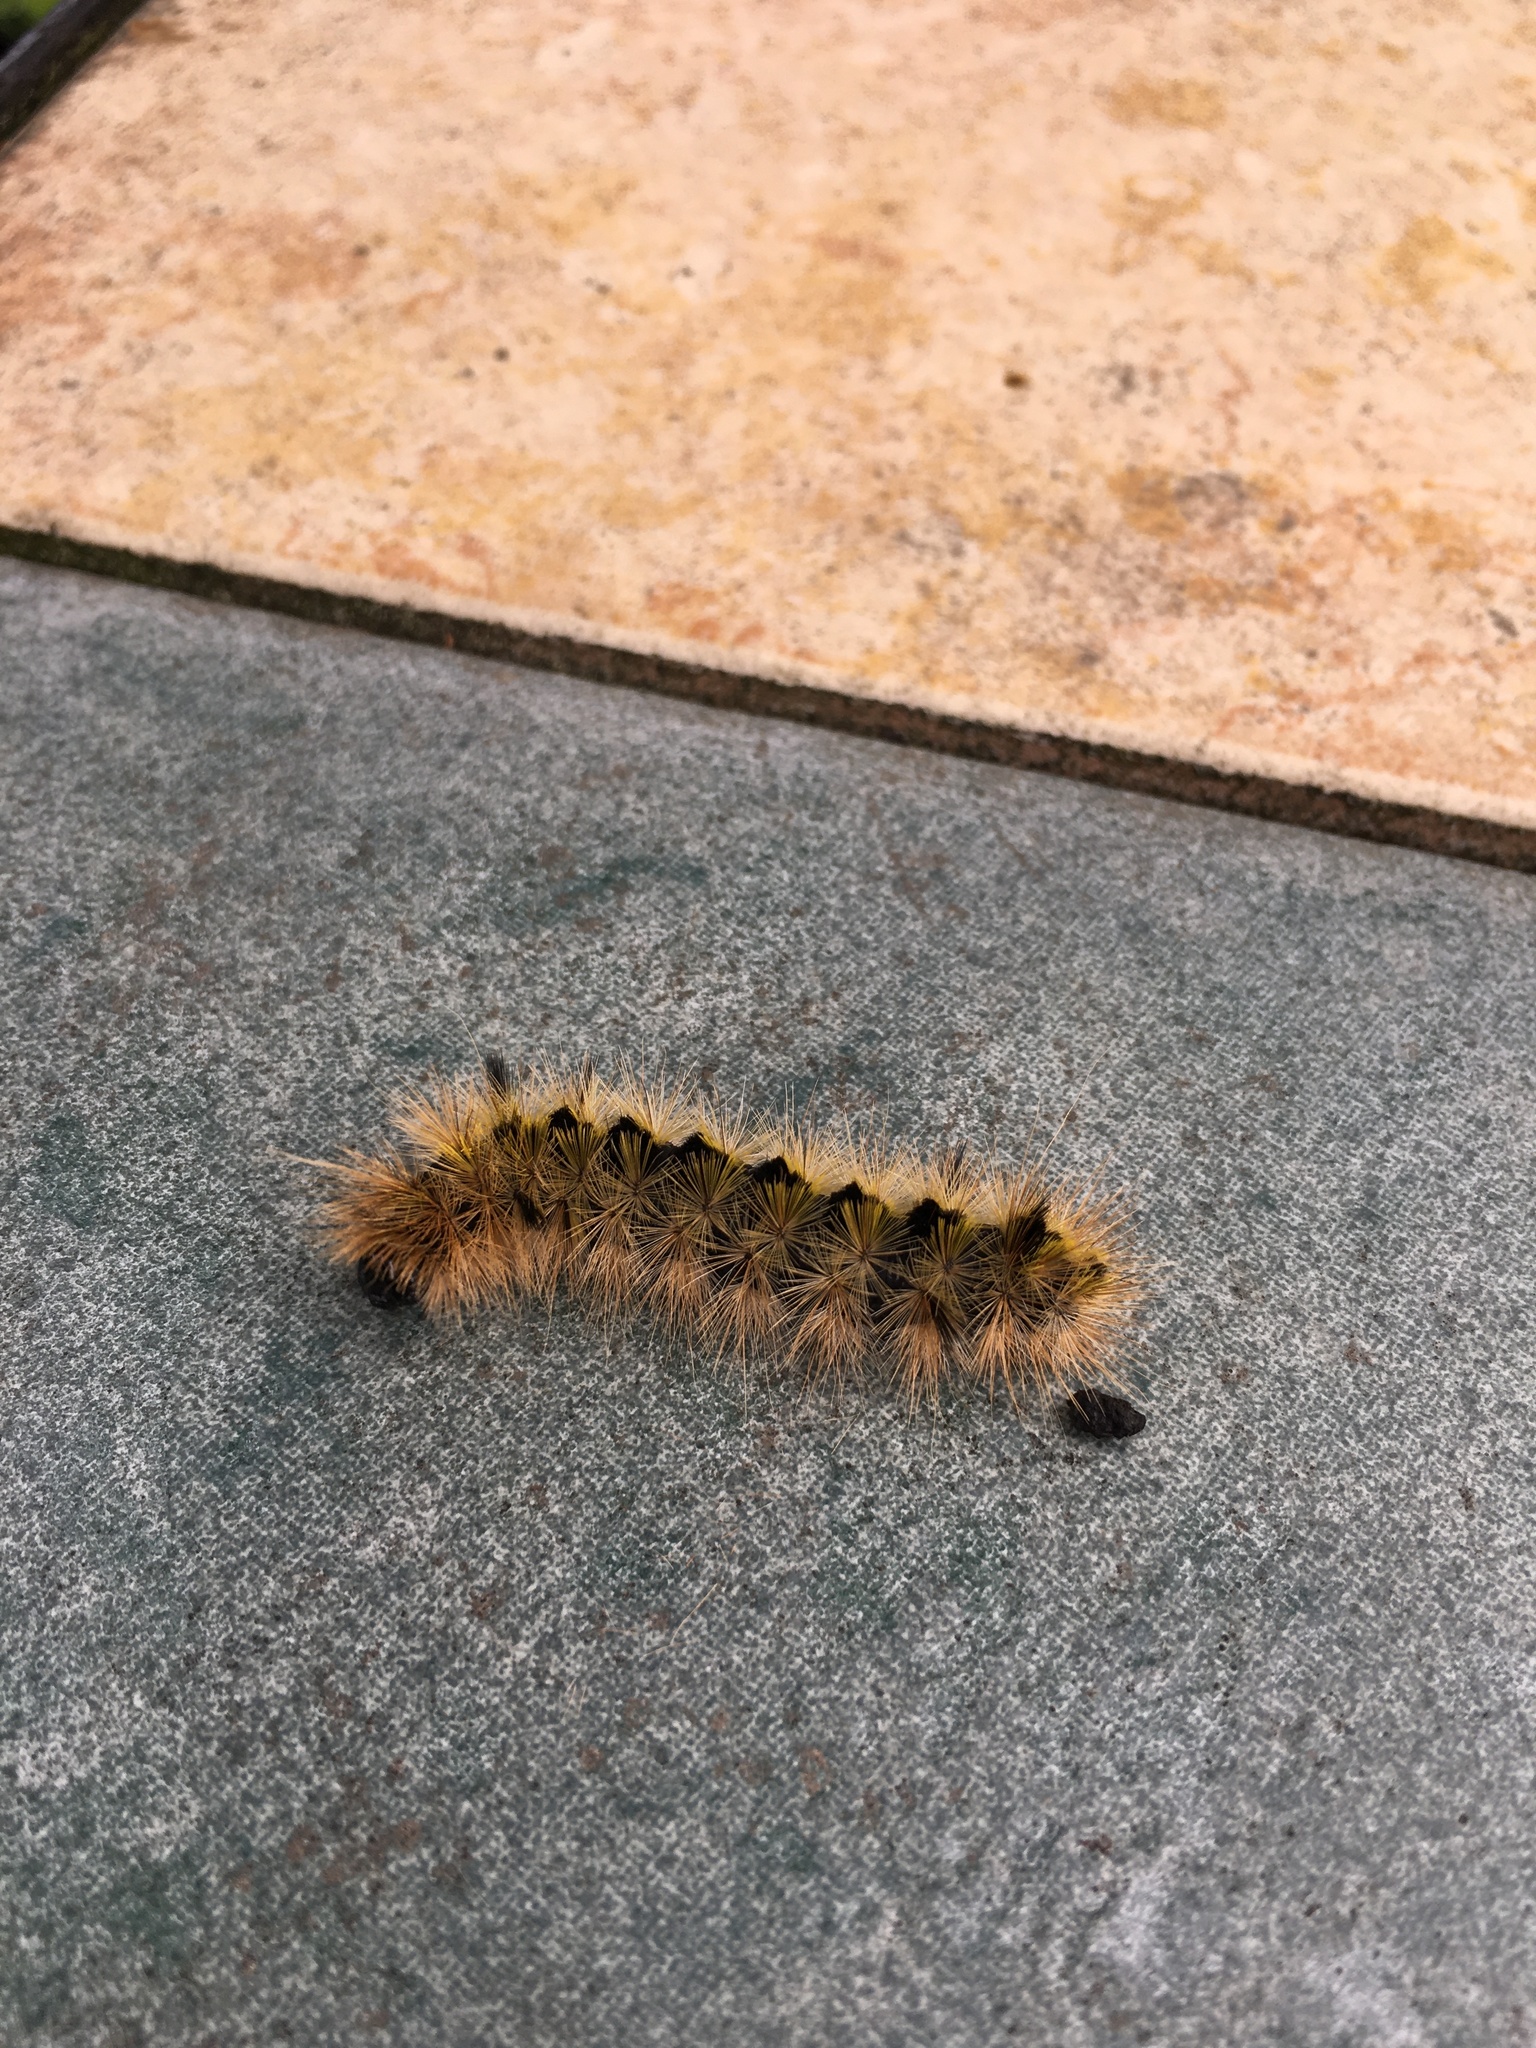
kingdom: Animalia
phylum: Arthropoda
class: Insecta
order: Lepidoptera
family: Erebidae
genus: Lophocampa
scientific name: Lophocampa argentata
